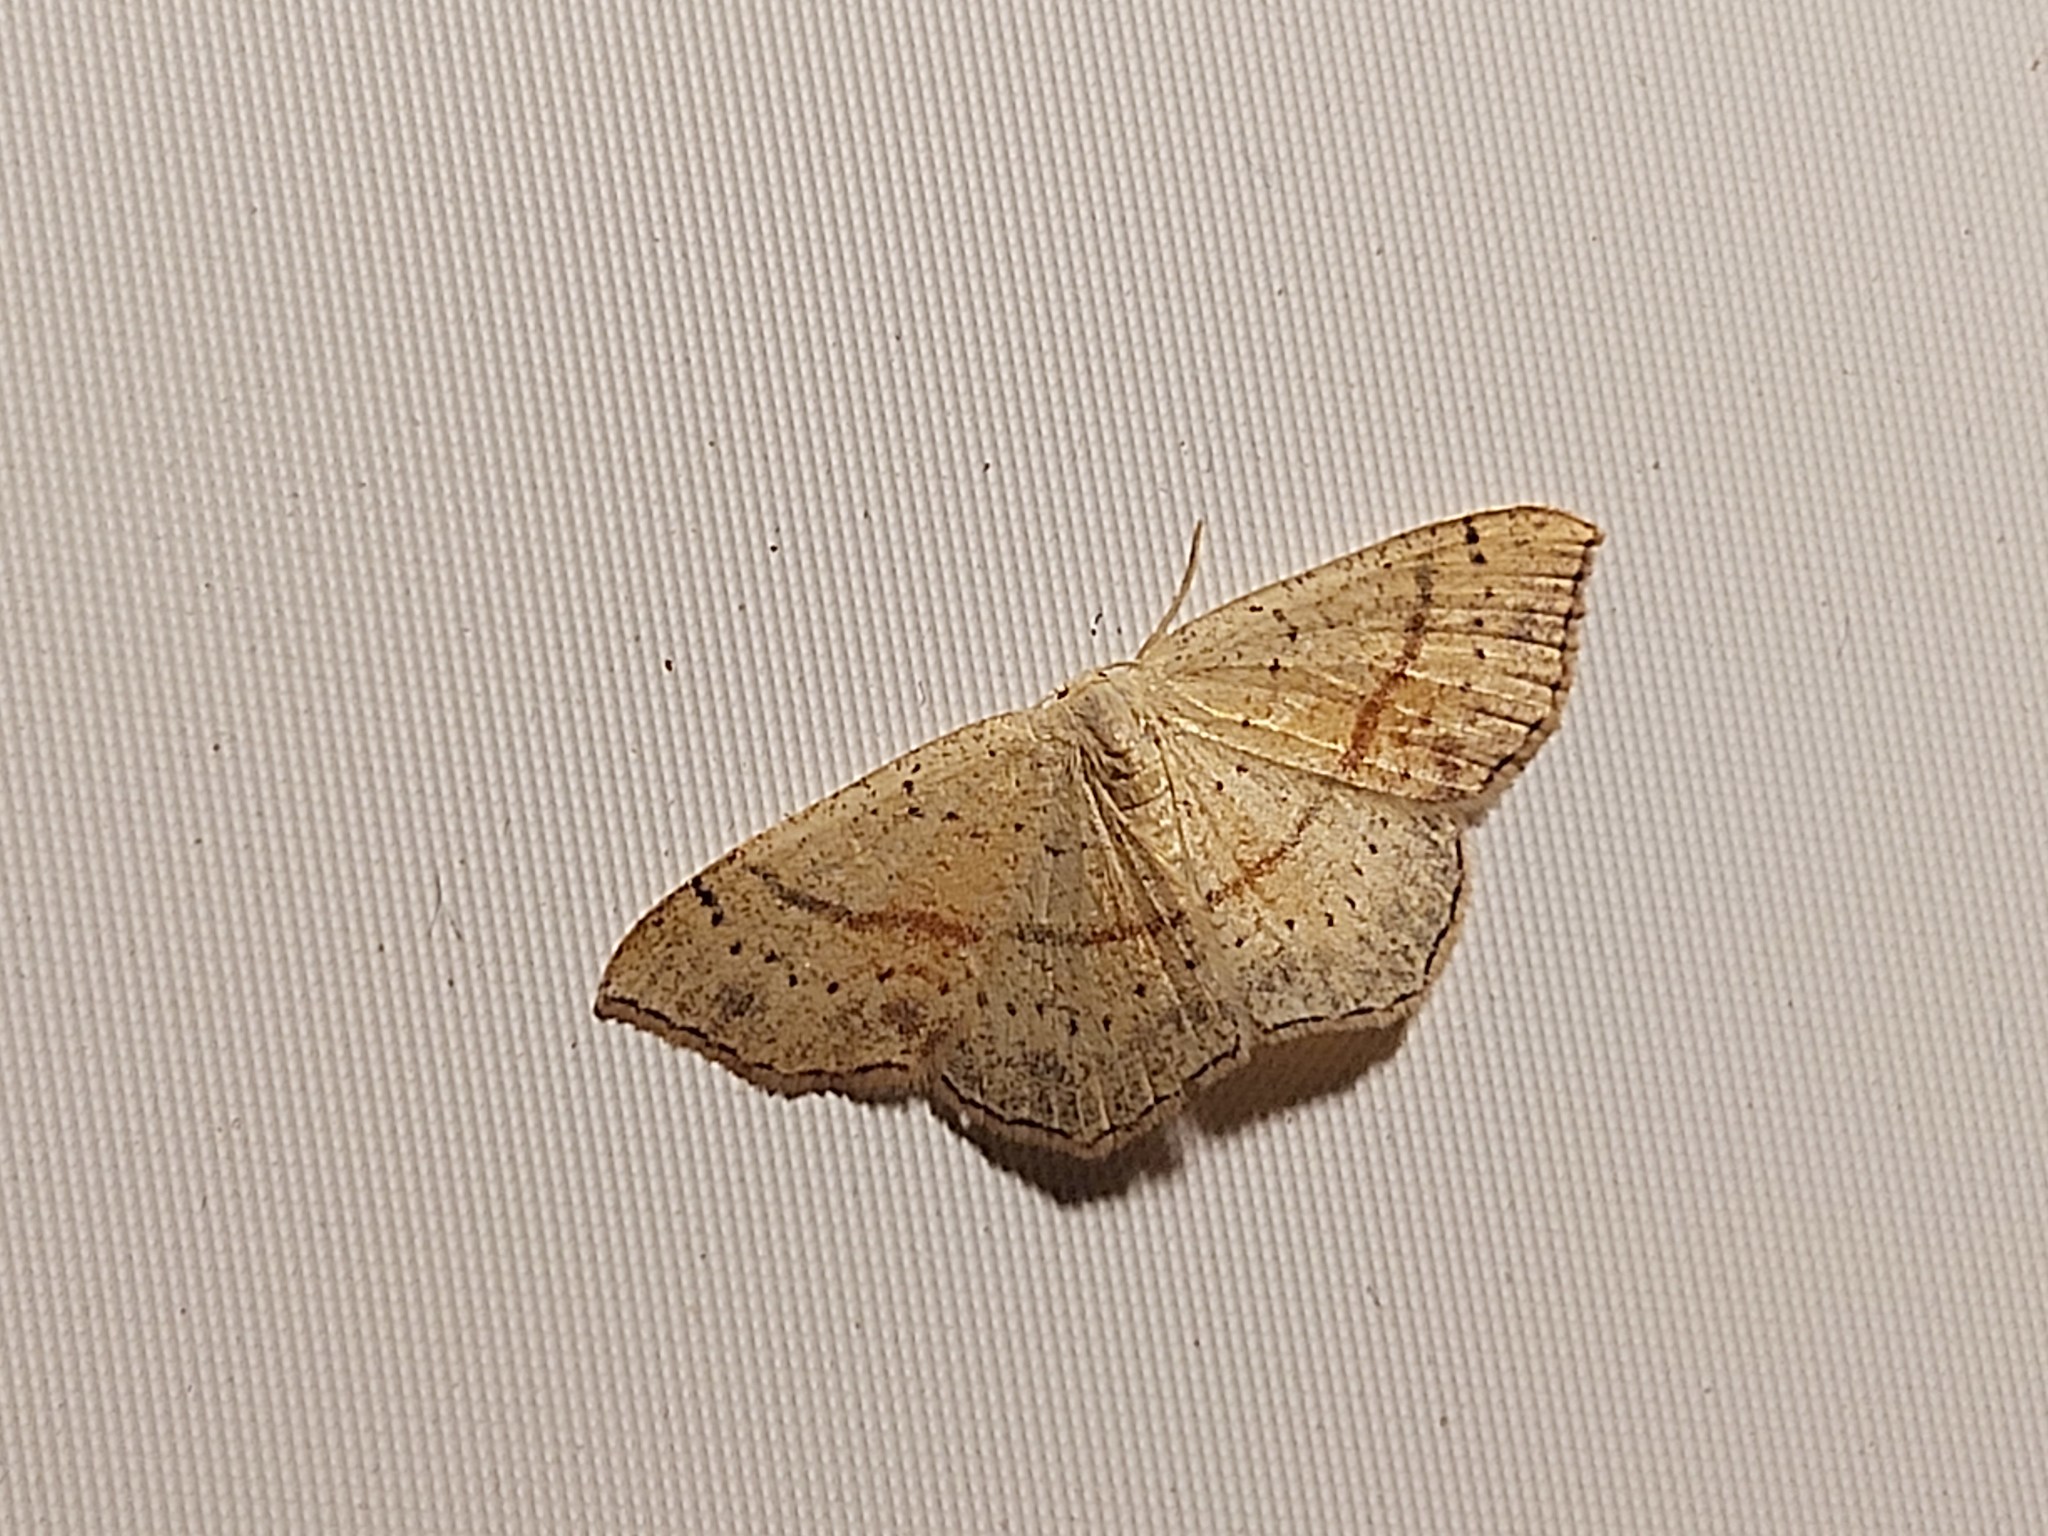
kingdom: Animalia
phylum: Arthropoda
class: Insecta
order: Lepidoptera
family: Geometridae
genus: Cyclophora
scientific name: Cyclophora punctaria
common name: Maiden's blush
